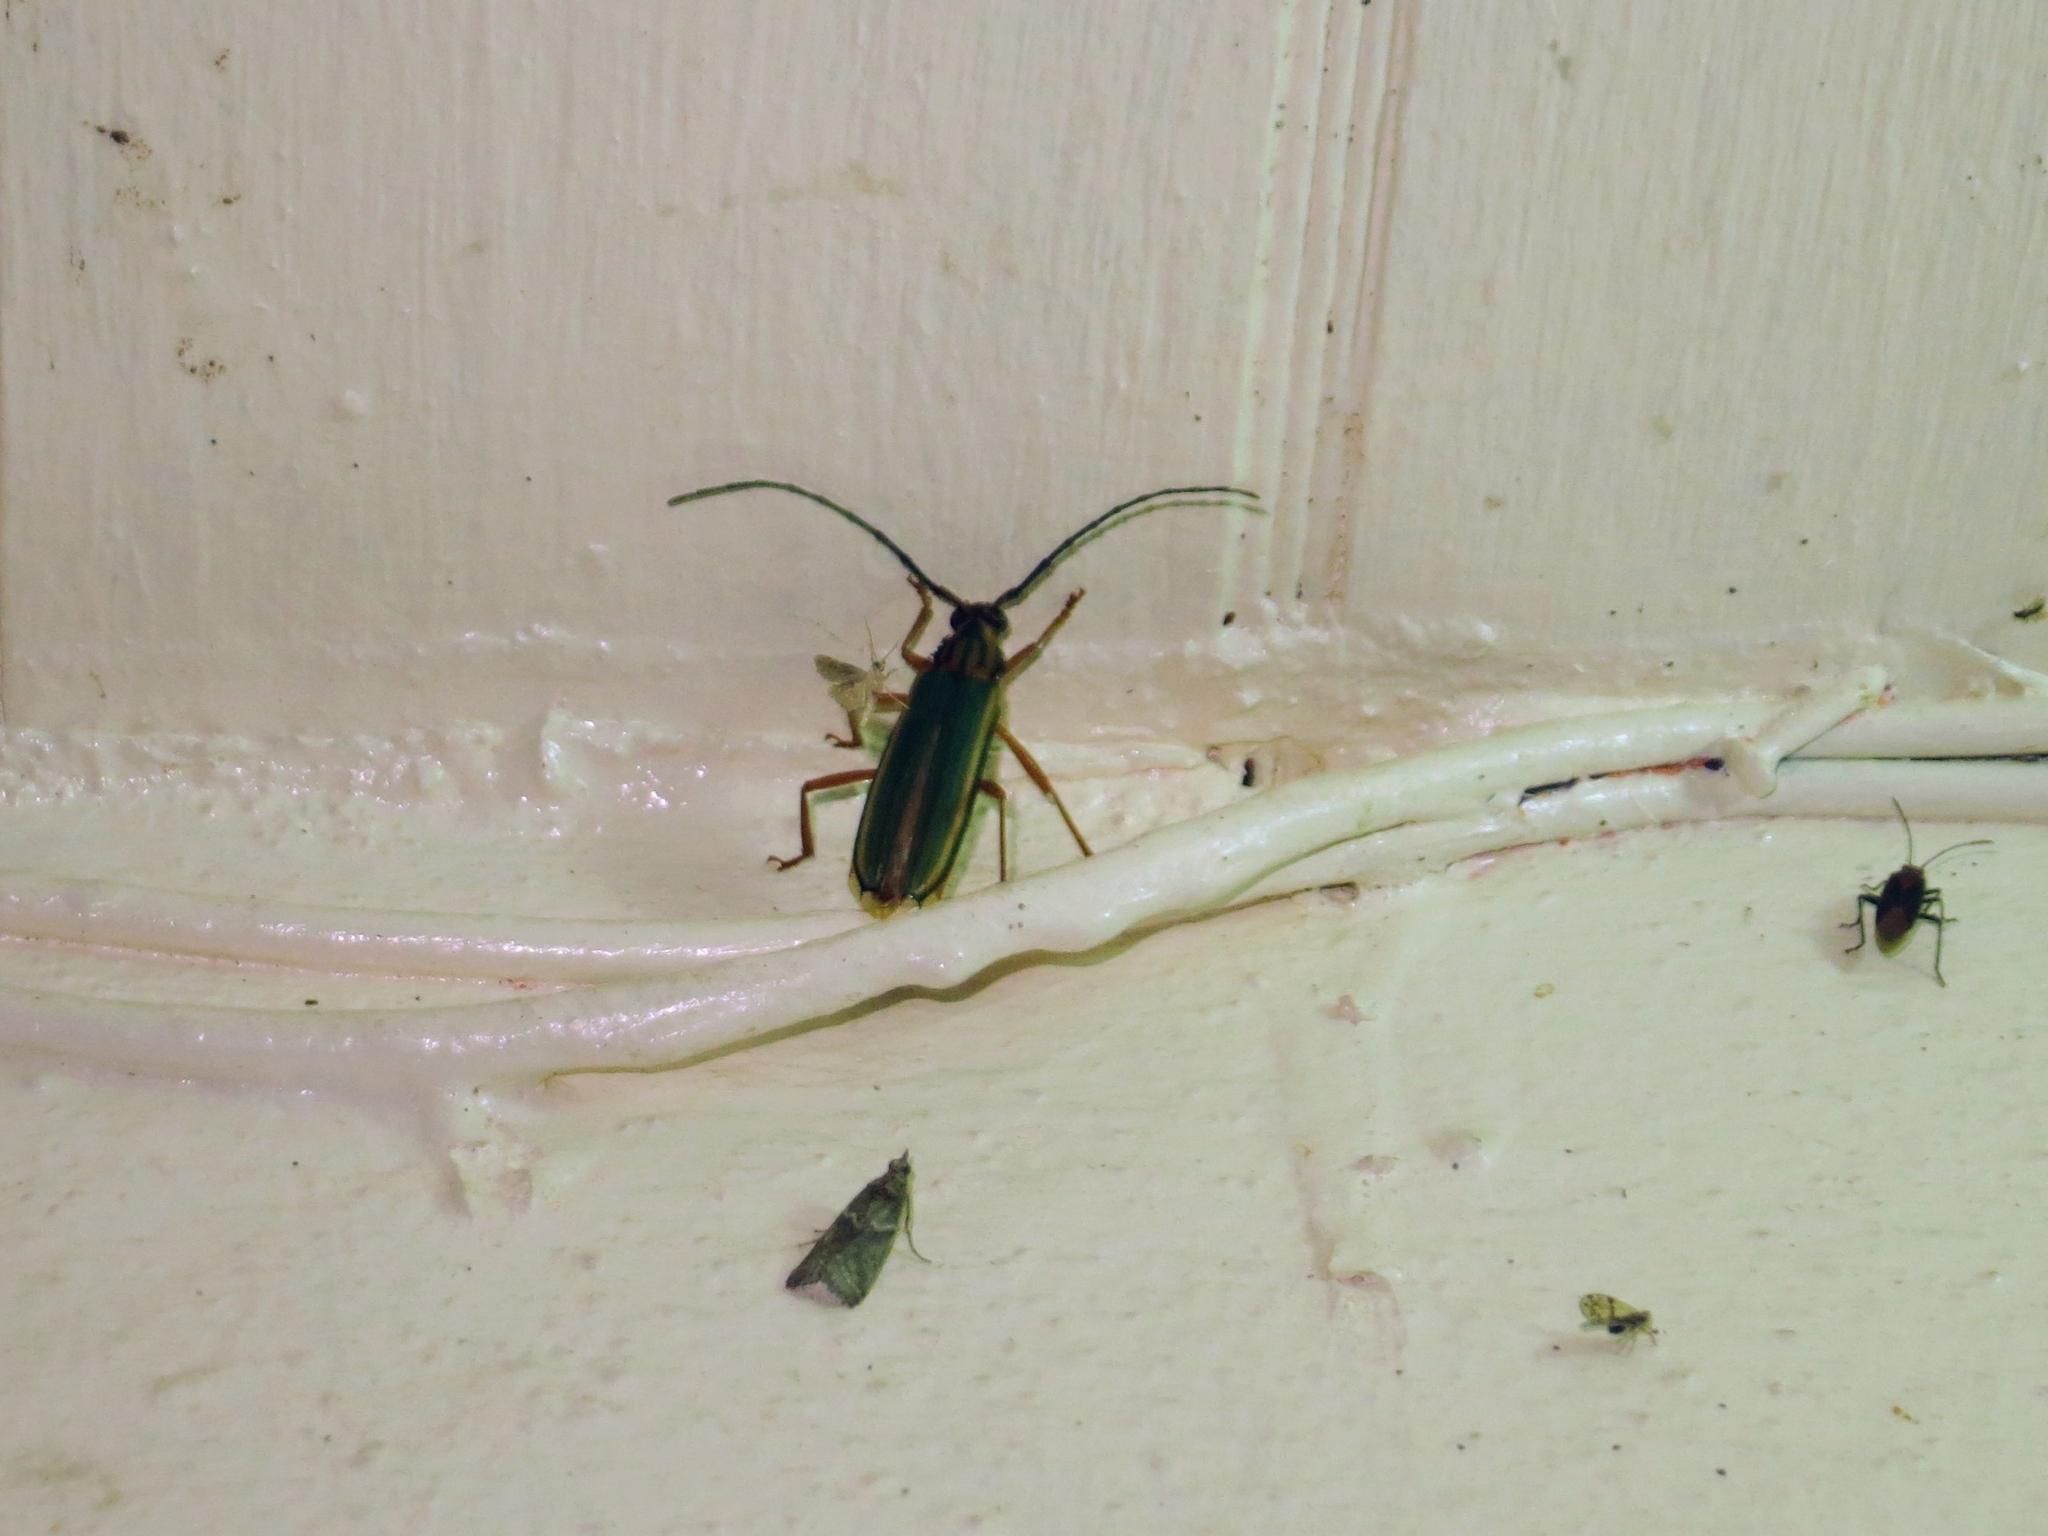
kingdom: Animalia
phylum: Arthropoda
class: Insecta
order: Coleoptera
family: Cerambycidae
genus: Chlorida
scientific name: Chlorida festiva
